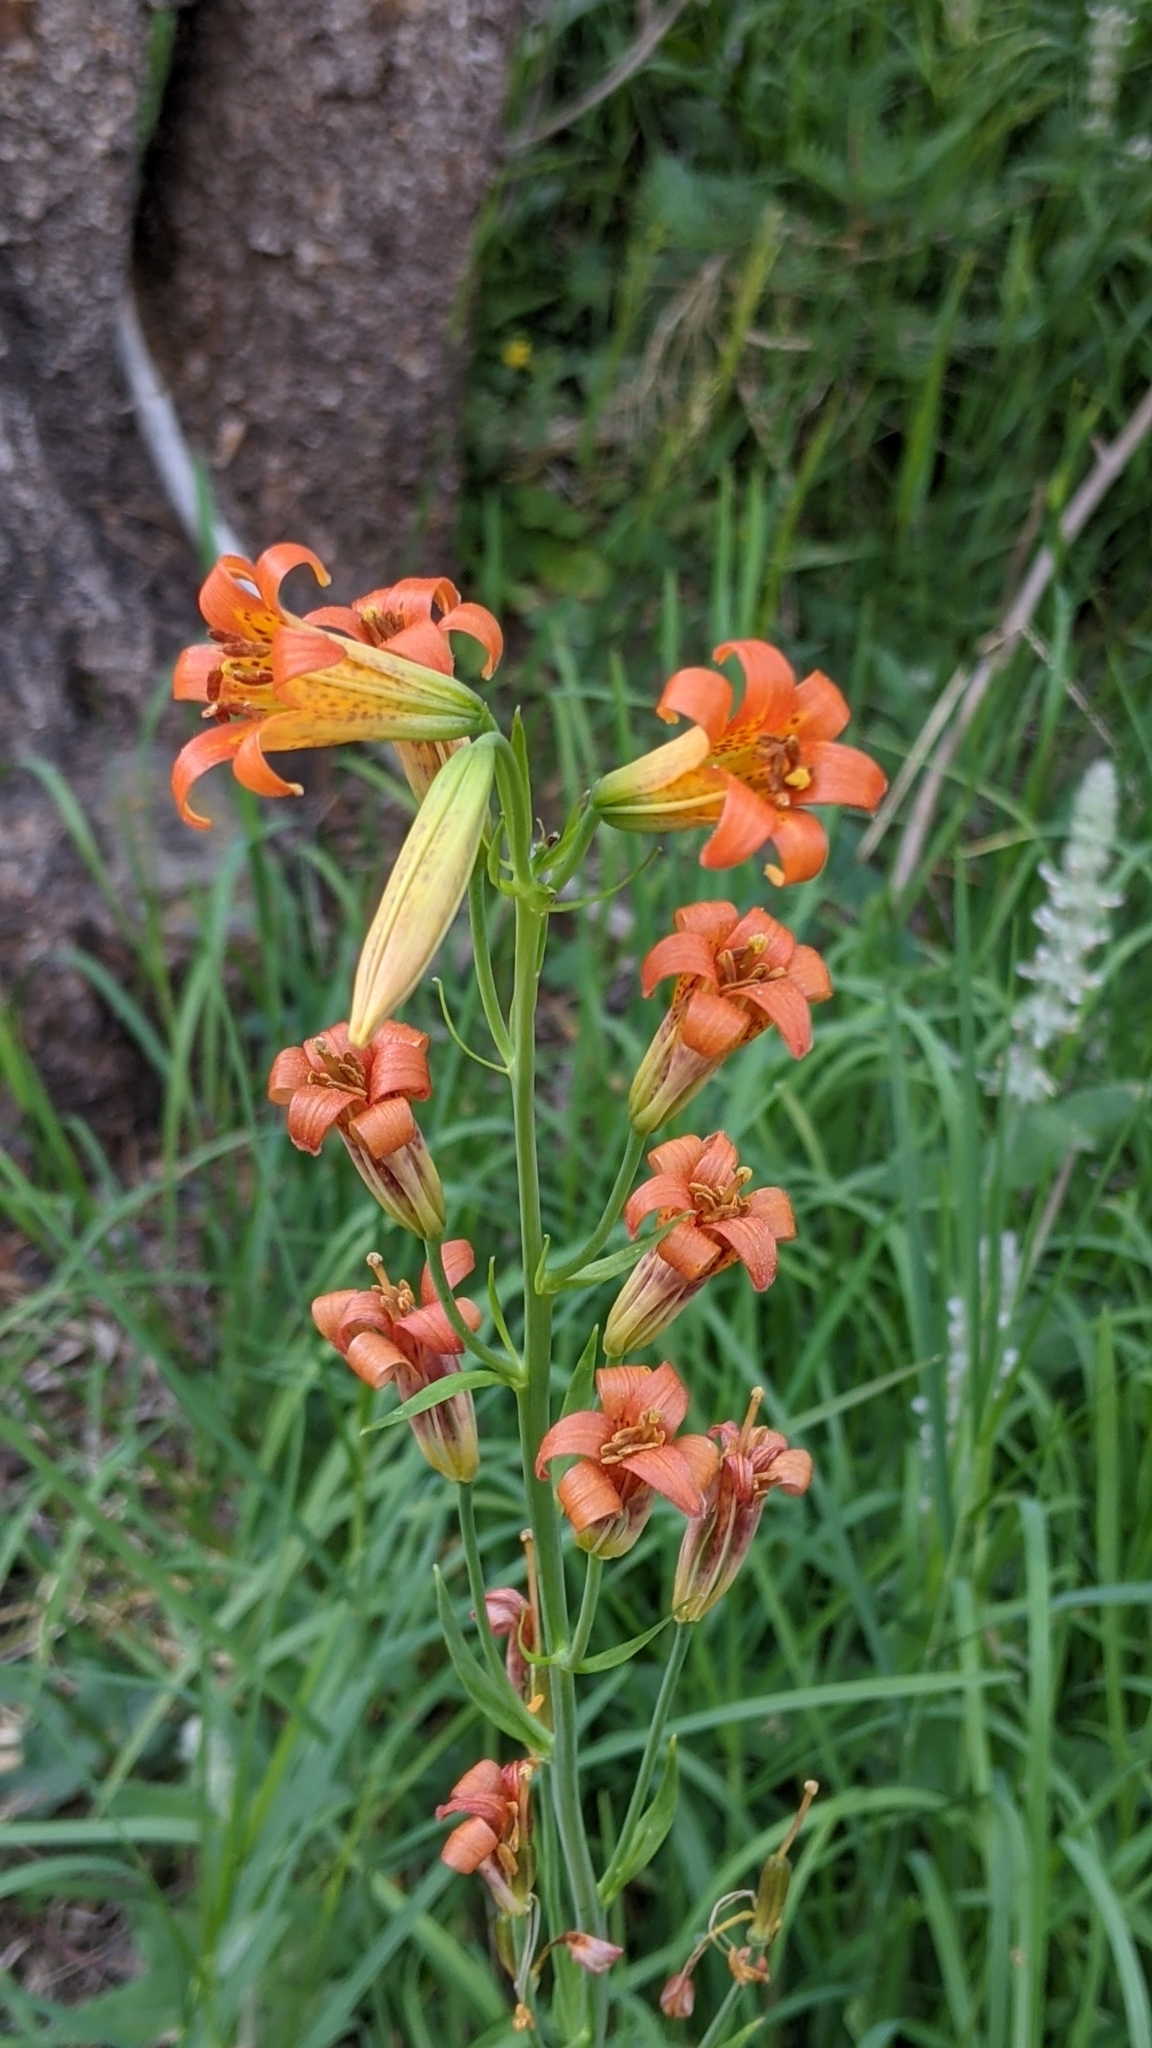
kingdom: Plantae
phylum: Tracheophyta
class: Liliopsida
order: Liliales
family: Liliaceae
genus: Lilium
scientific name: Lilium parvum
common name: Alpine lily
